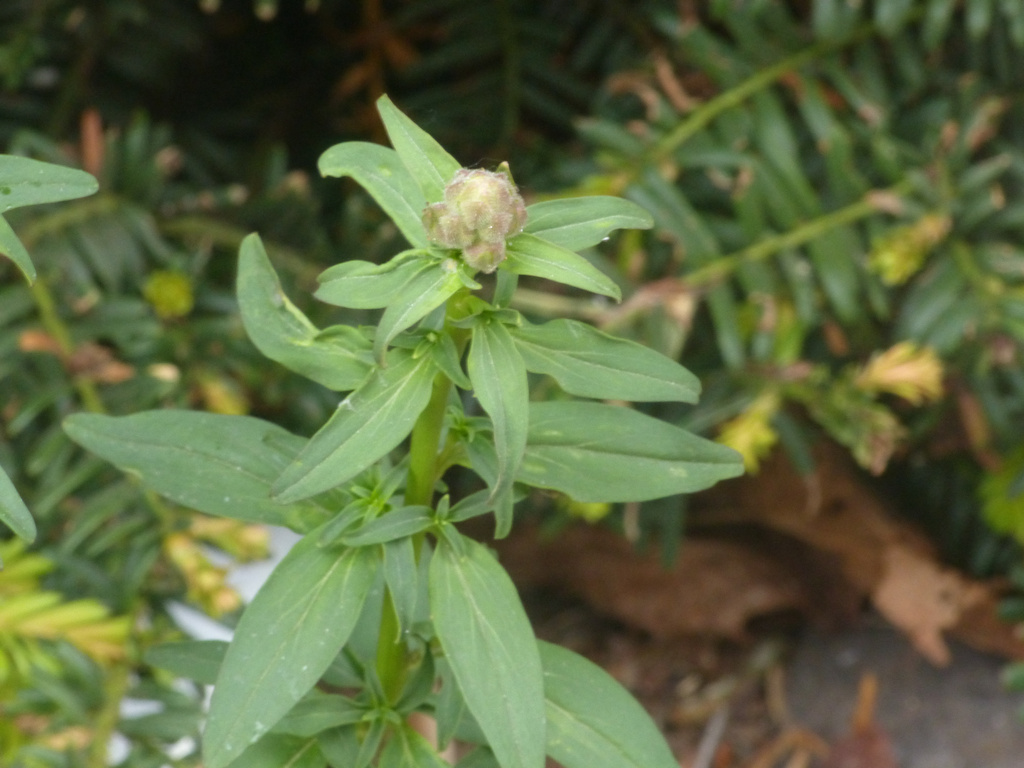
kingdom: Plantae
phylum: Tracheophyta
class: Magnoliopsida
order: Lamiales
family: Plantaginaceae
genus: Antirrhinum
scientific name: Antirrhinum majus
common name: Snapdragon
